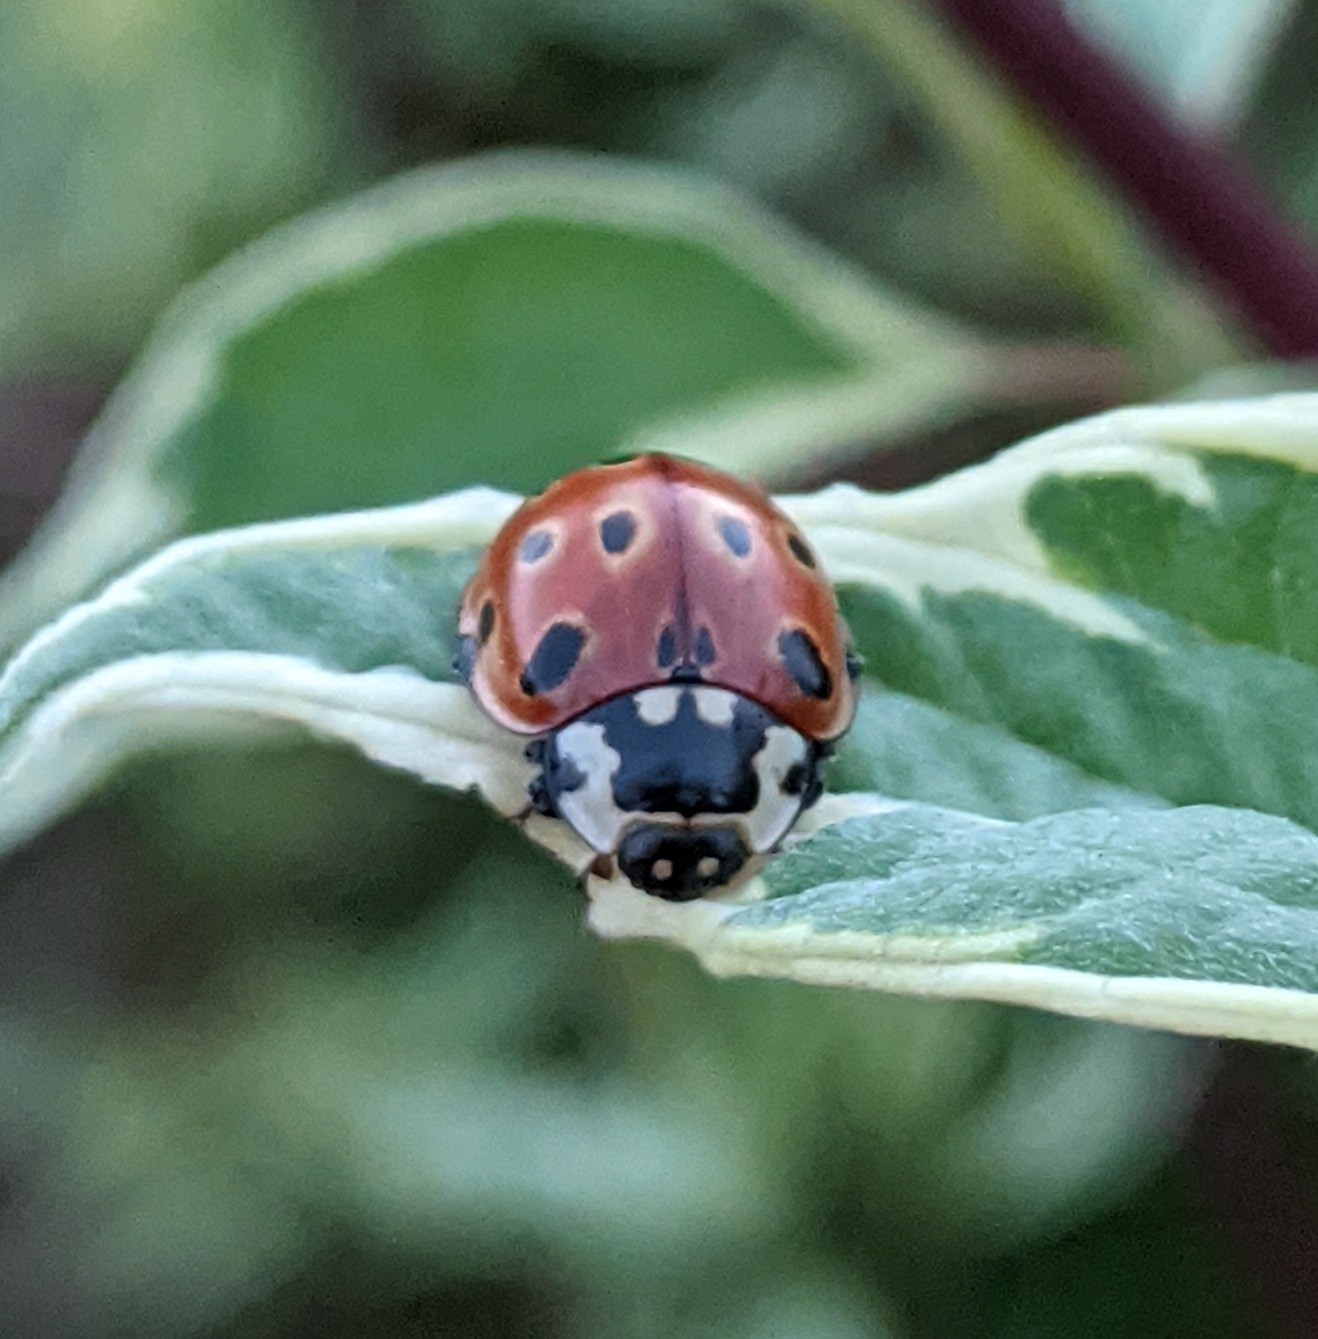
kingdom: Animalia
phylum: Arthropoda
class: Insecta
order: Coleoptera
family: Coccinellidae
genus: Anatis
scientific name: Anatis ocellata
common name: Eyed ladybird
